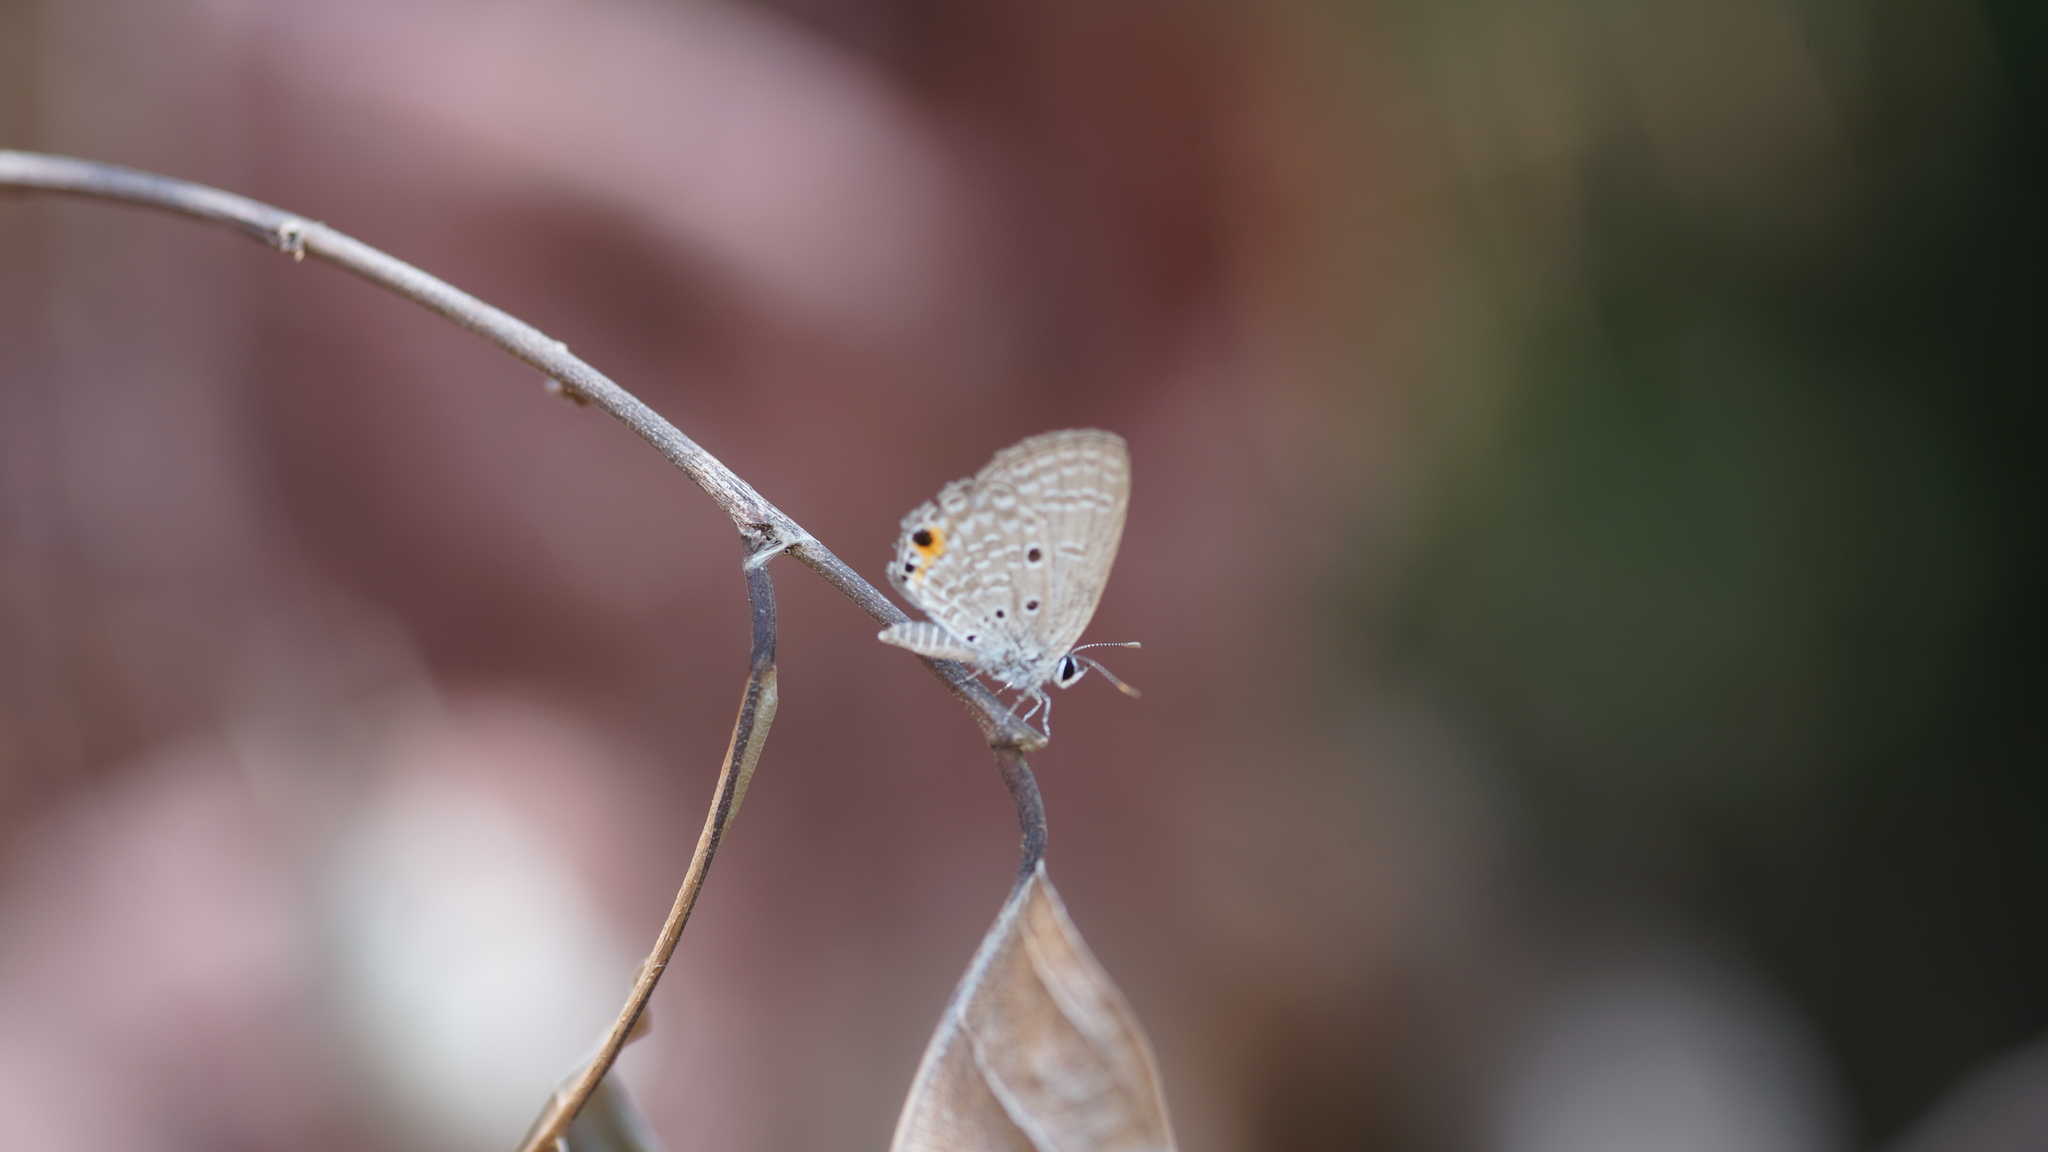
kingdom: Animalia
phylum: Arthropoda
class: Insecta
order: Lepidoptera
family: Lycaenidae
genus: Luthrodes
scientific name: Luthrodes pandava
